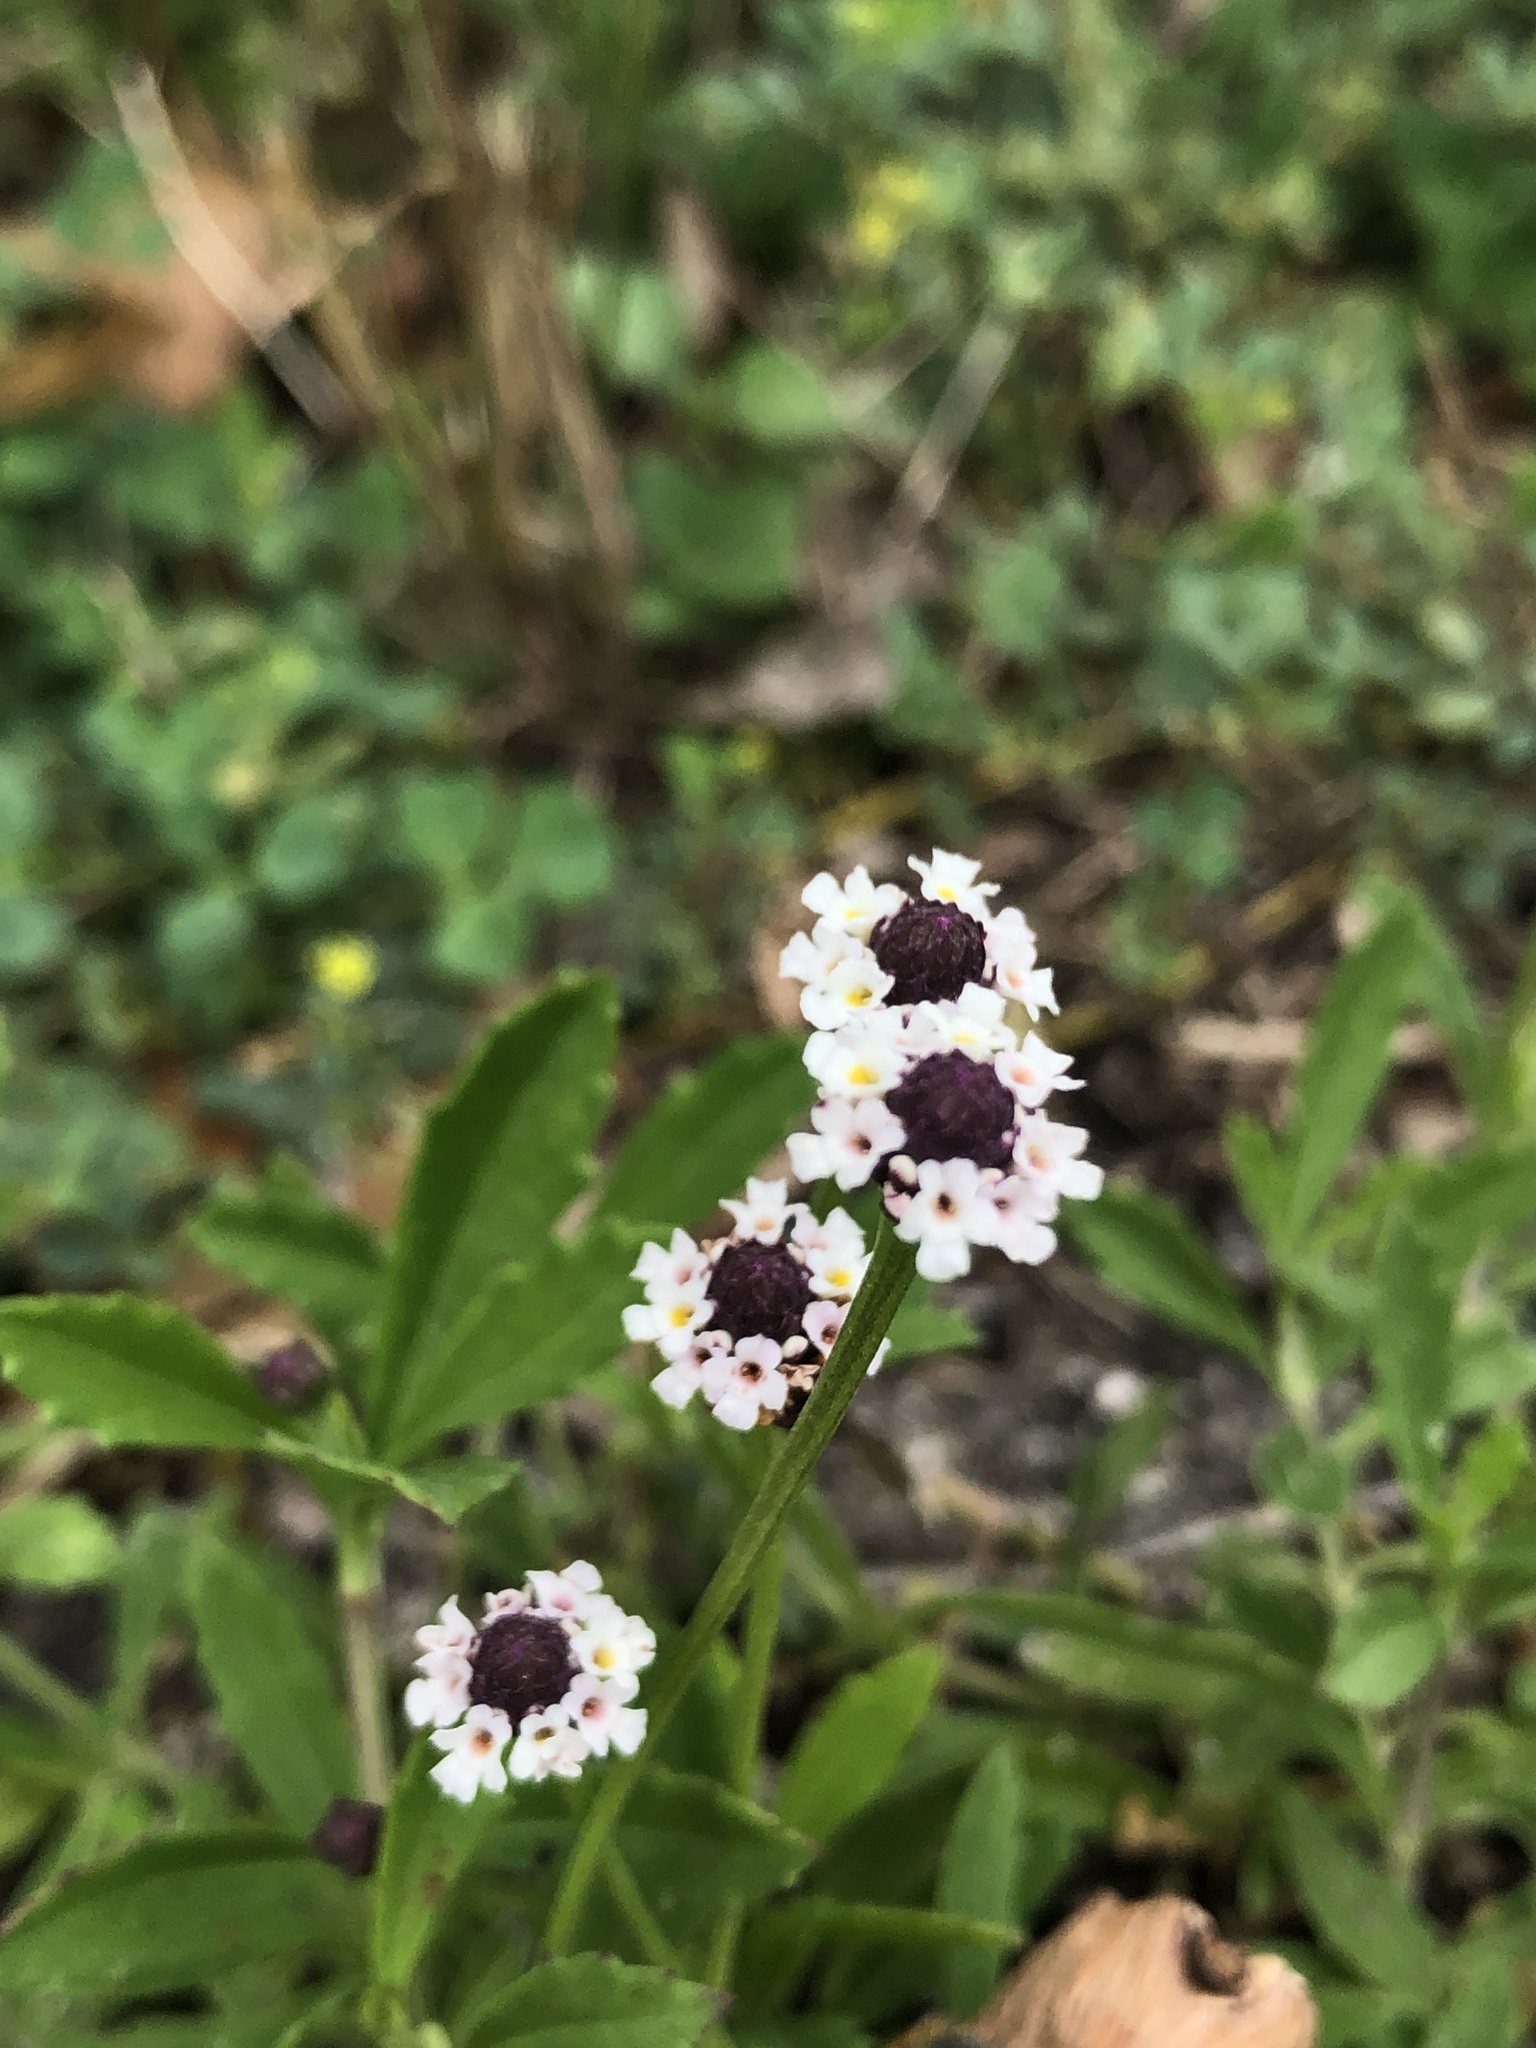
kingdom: Plantae
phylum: Tracheophyta
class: Magnoliopsida
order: Lamiales
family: Verbenaceae
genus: Phyla
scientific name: Phyla nodiflora
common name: Frogfruit
